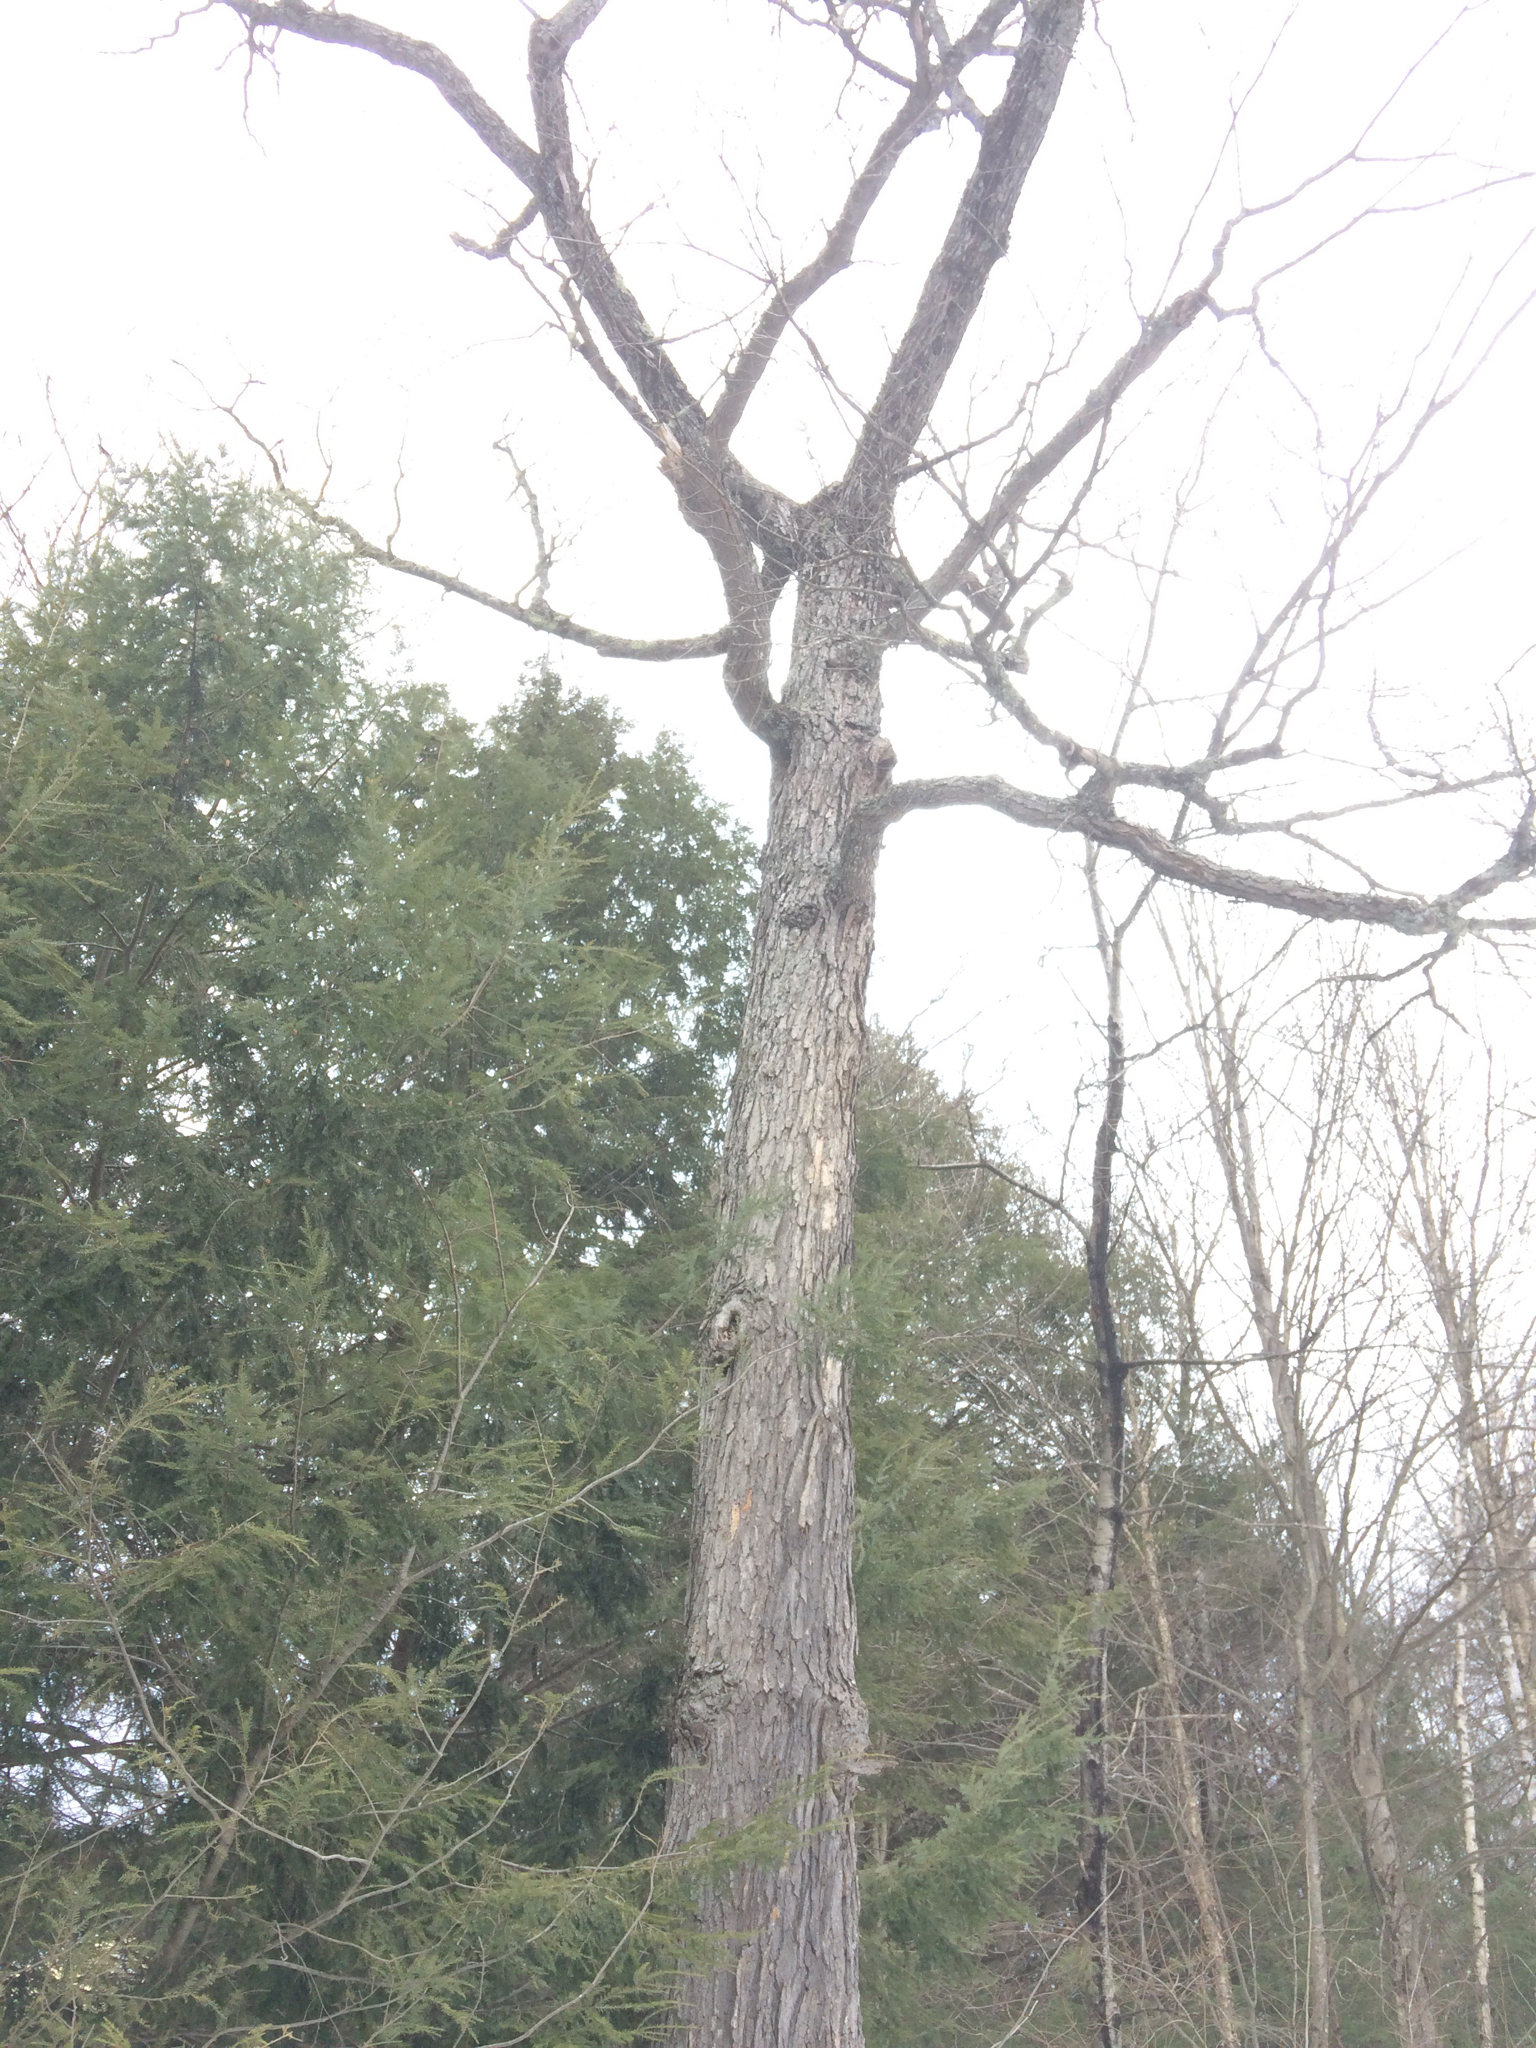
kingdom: Plantae
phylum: Tracheophyta
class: Magnoliopsida
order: Sapindales
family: Sapindaceae
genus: Acer
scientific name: Acer saccharum
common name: Sugar maple
